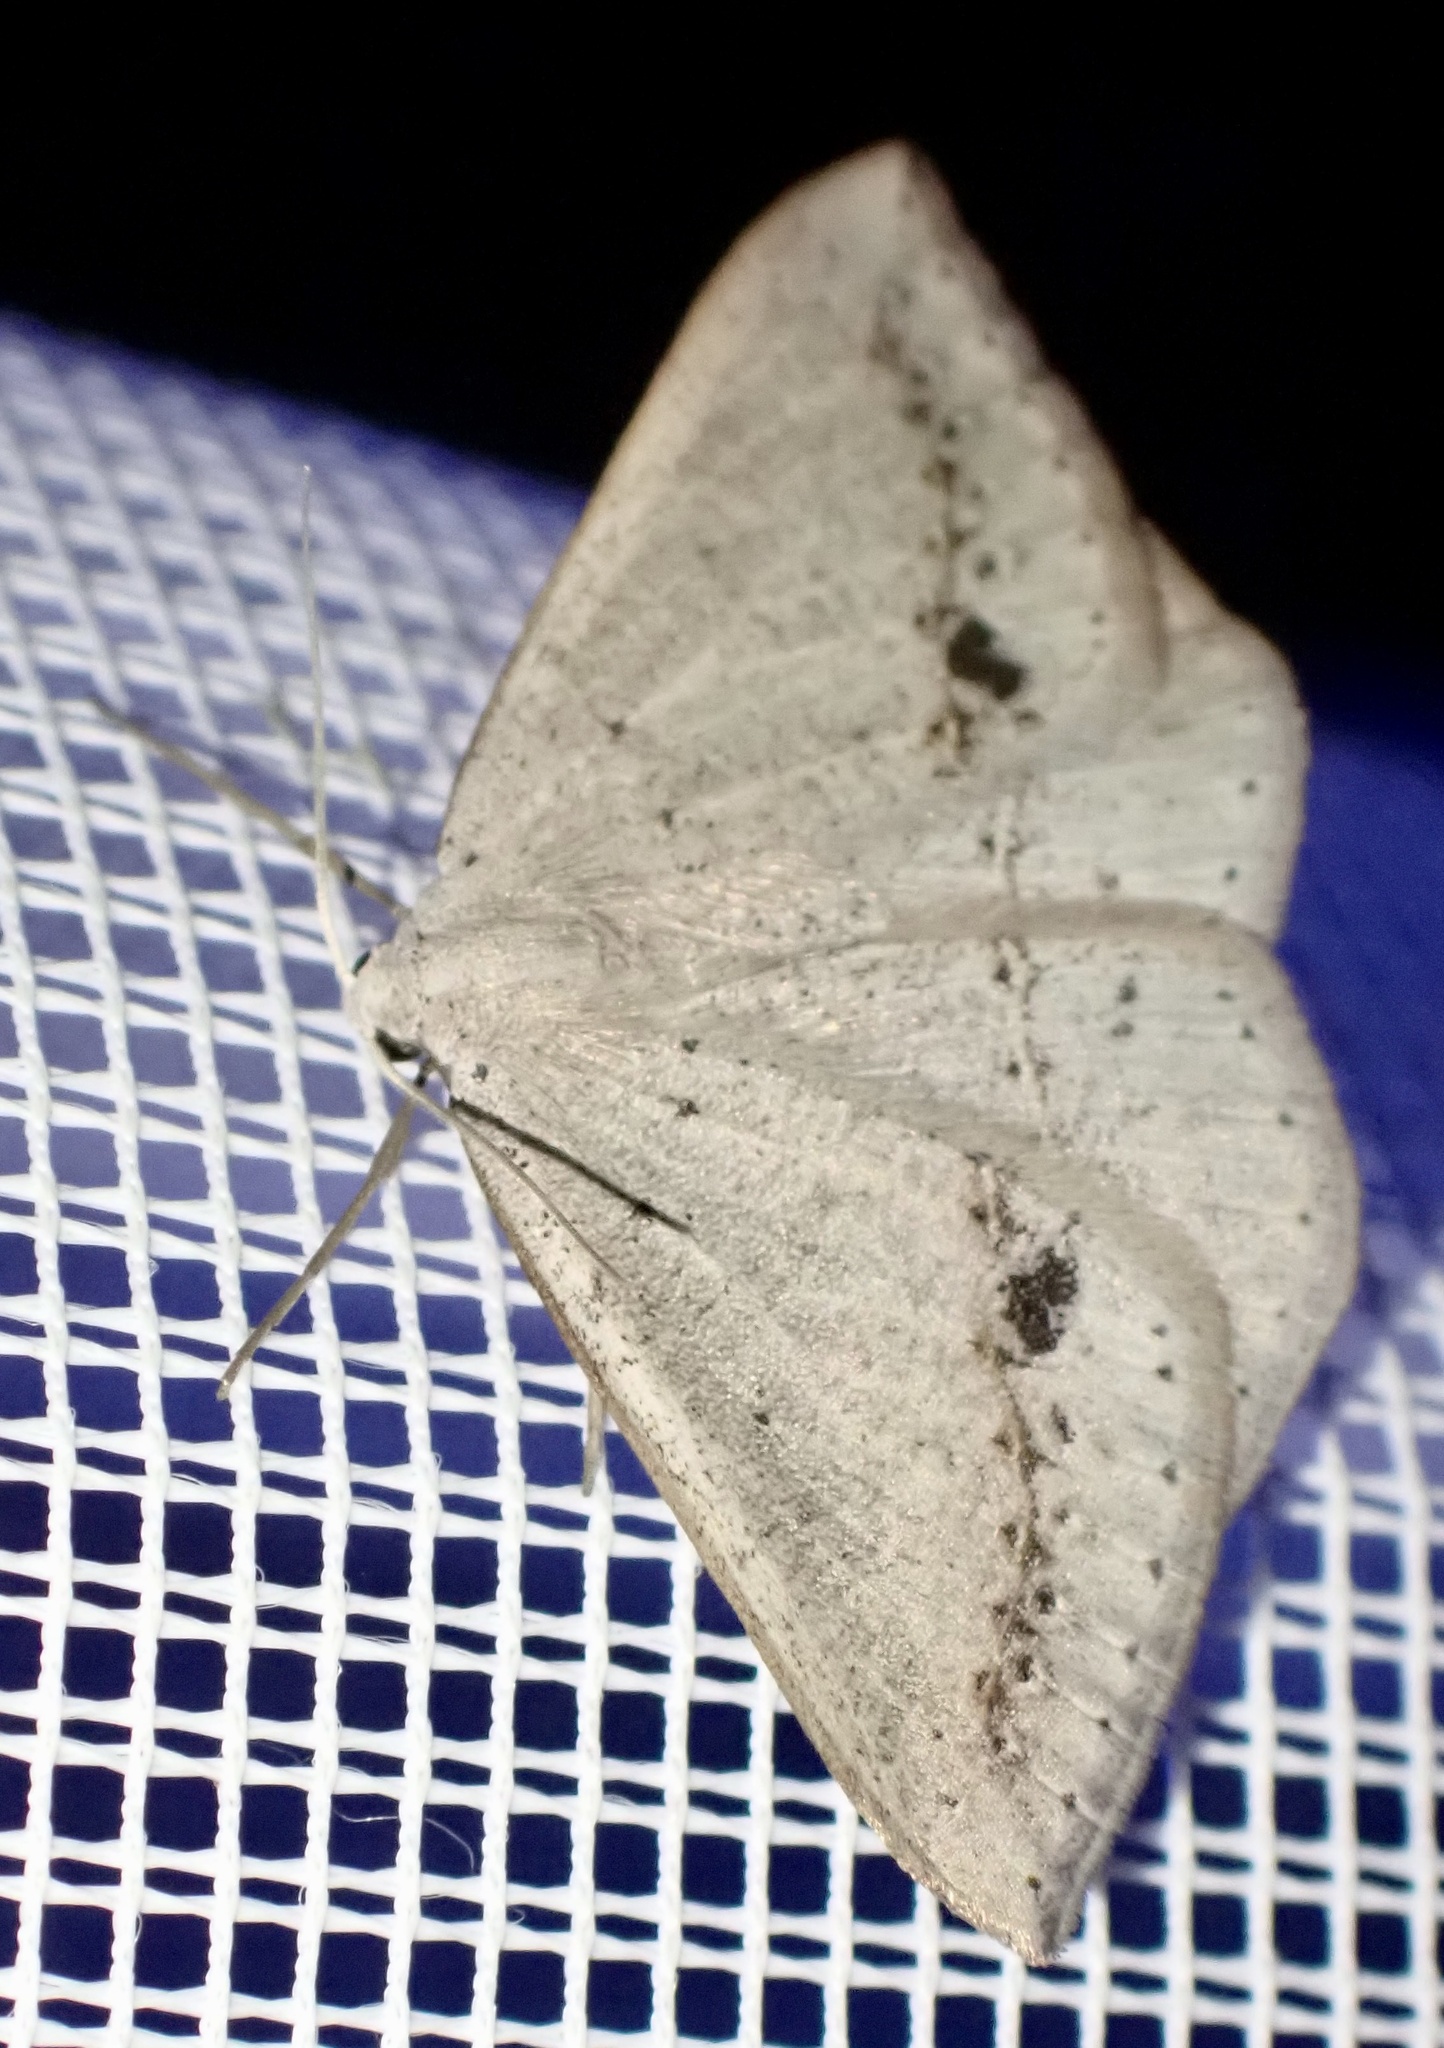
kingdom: Animalia
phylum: Arthropoda
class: Insecta
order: Lepidoptera
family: Geometridae
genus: Taxeotis
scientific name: Taxeotis egenata
